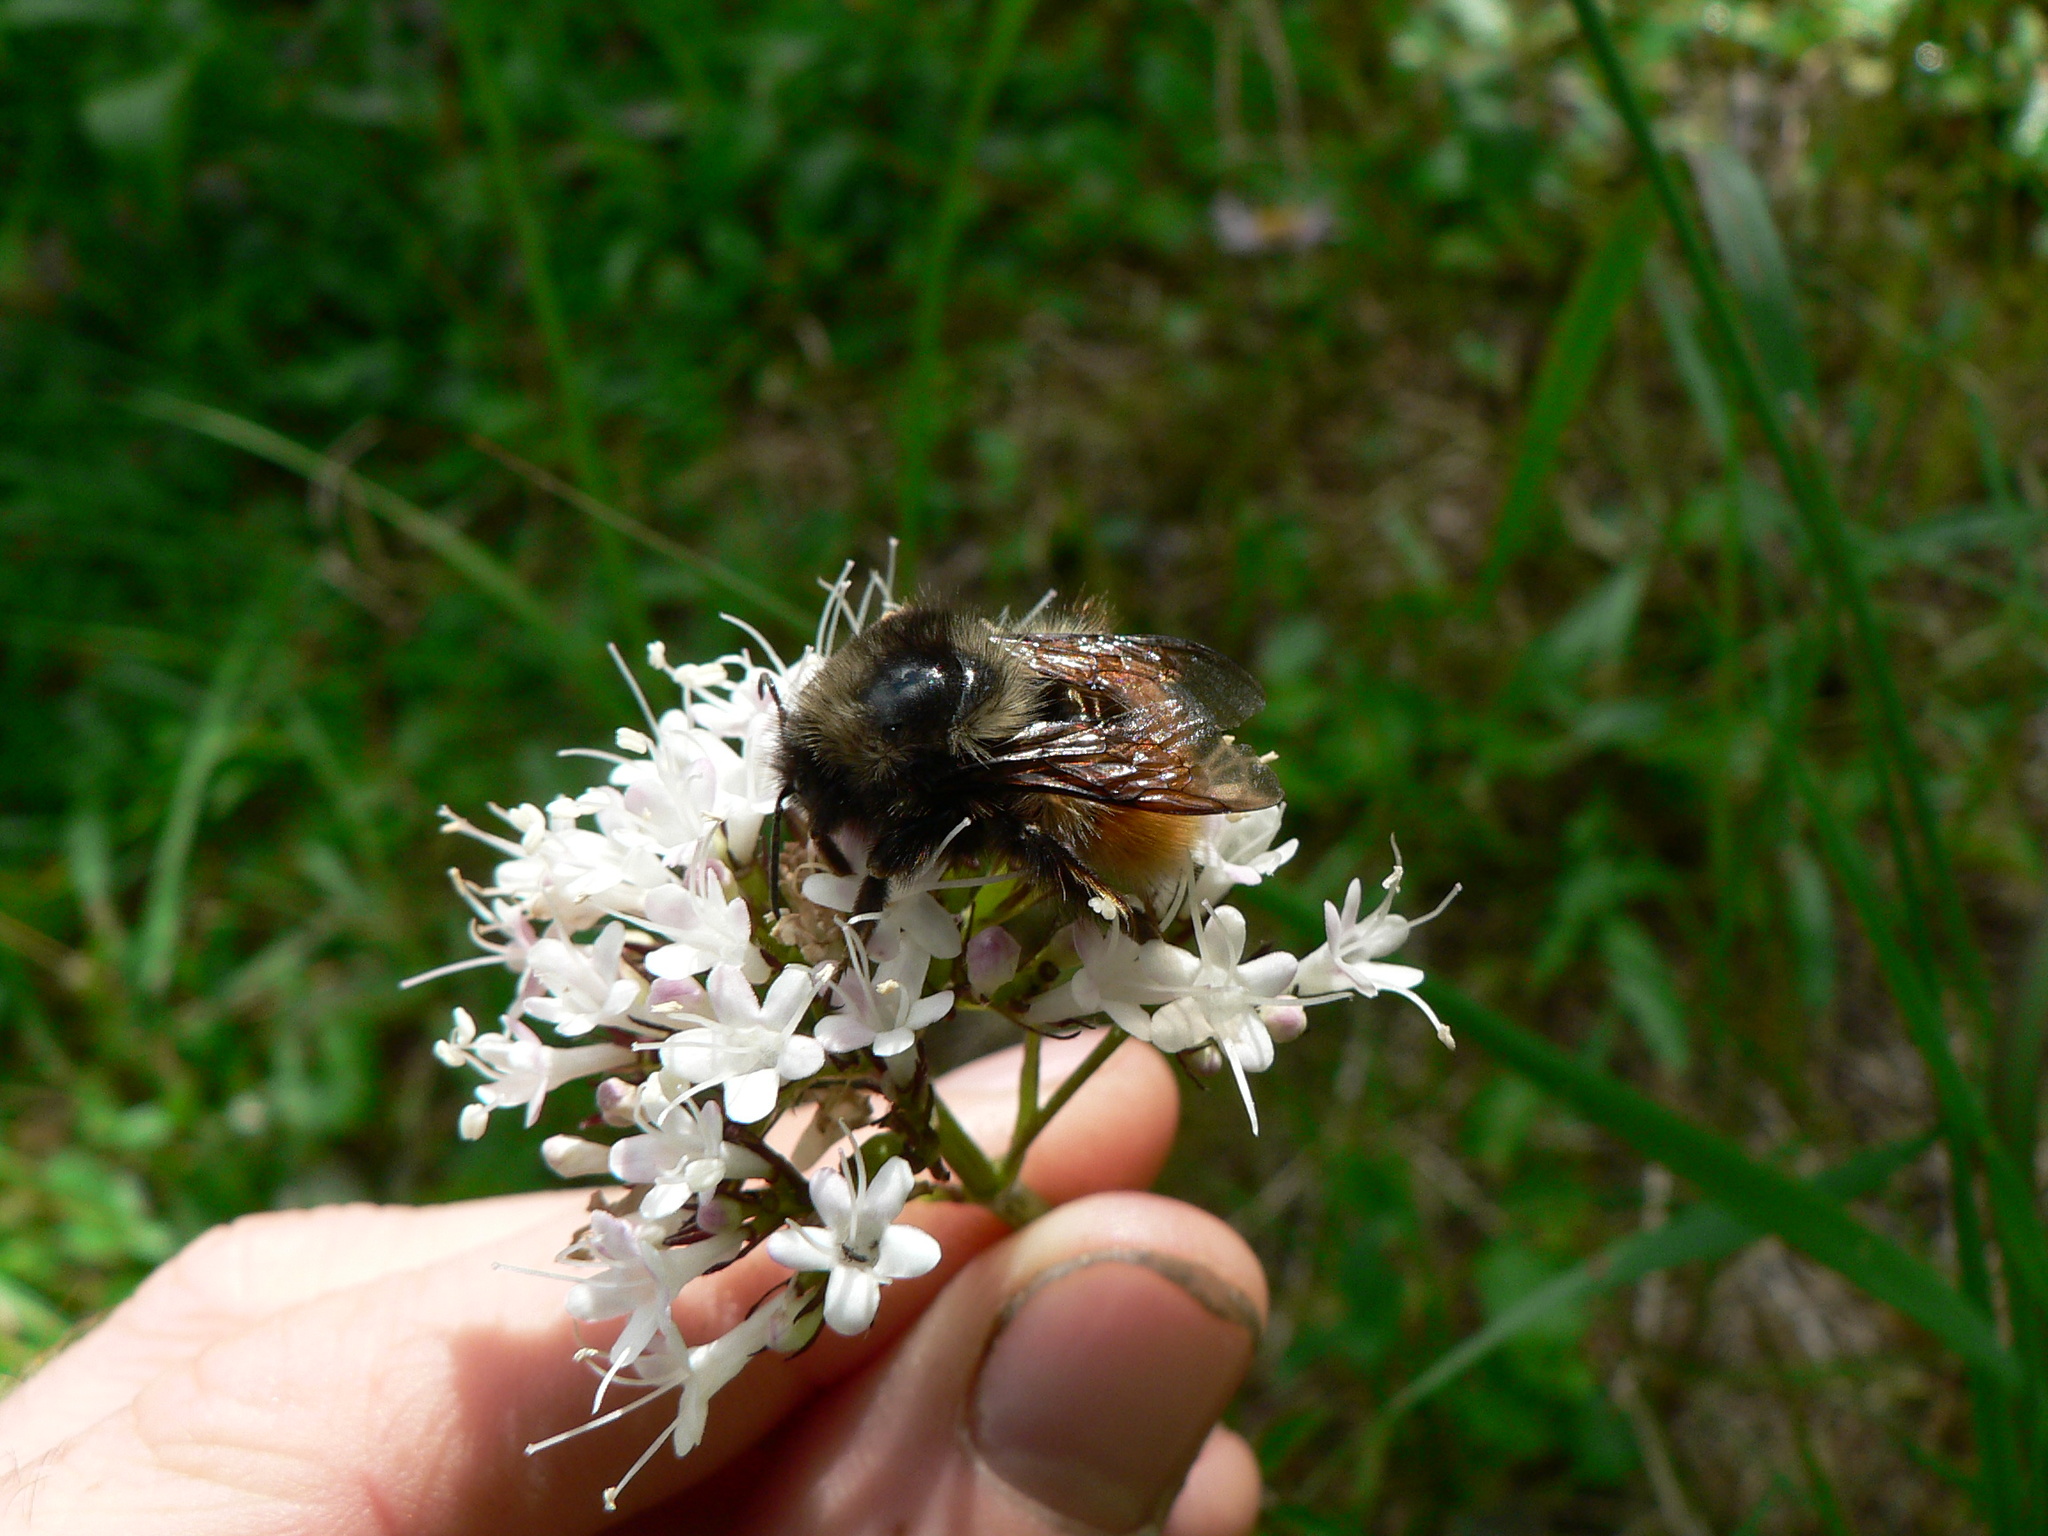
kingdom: Animalia
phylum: Arthropoda
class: Insecta
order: Hymenoptera
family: Apidae
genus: Bombus
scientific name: Bombus melanopygus
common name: Black tail bumble bee
